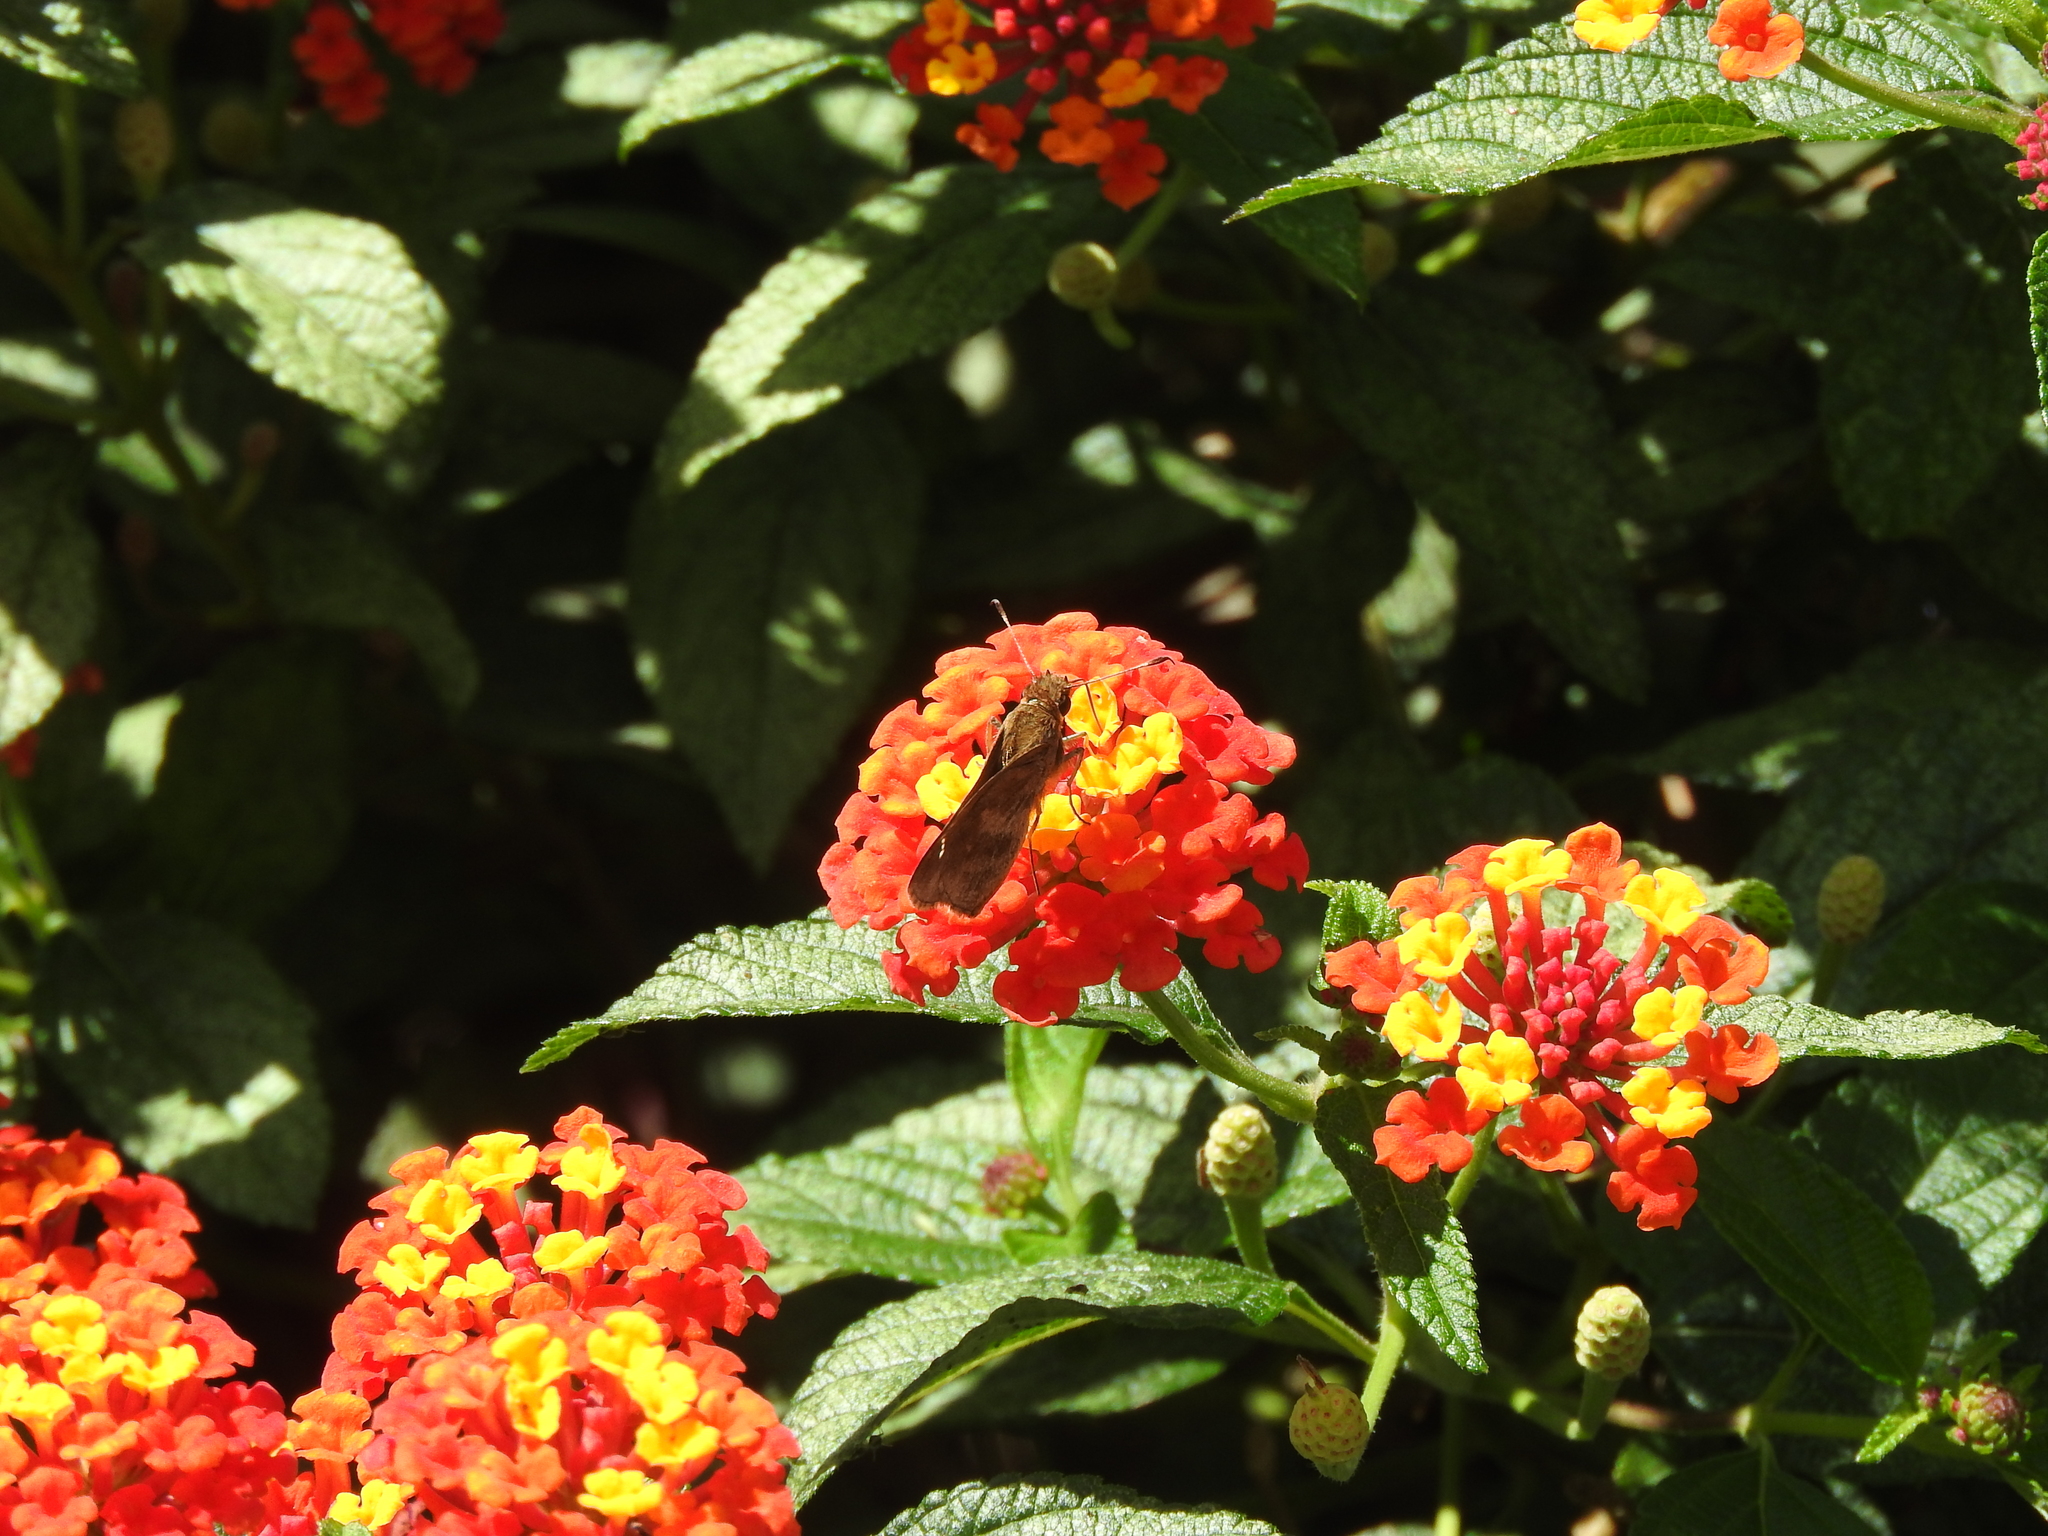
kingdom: Plantae
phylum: Tracheophyta
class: Magnoliopsida
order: Lamiales
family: Verbenaceae
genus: Lantana
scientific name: Lantana camara
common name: Lantana
